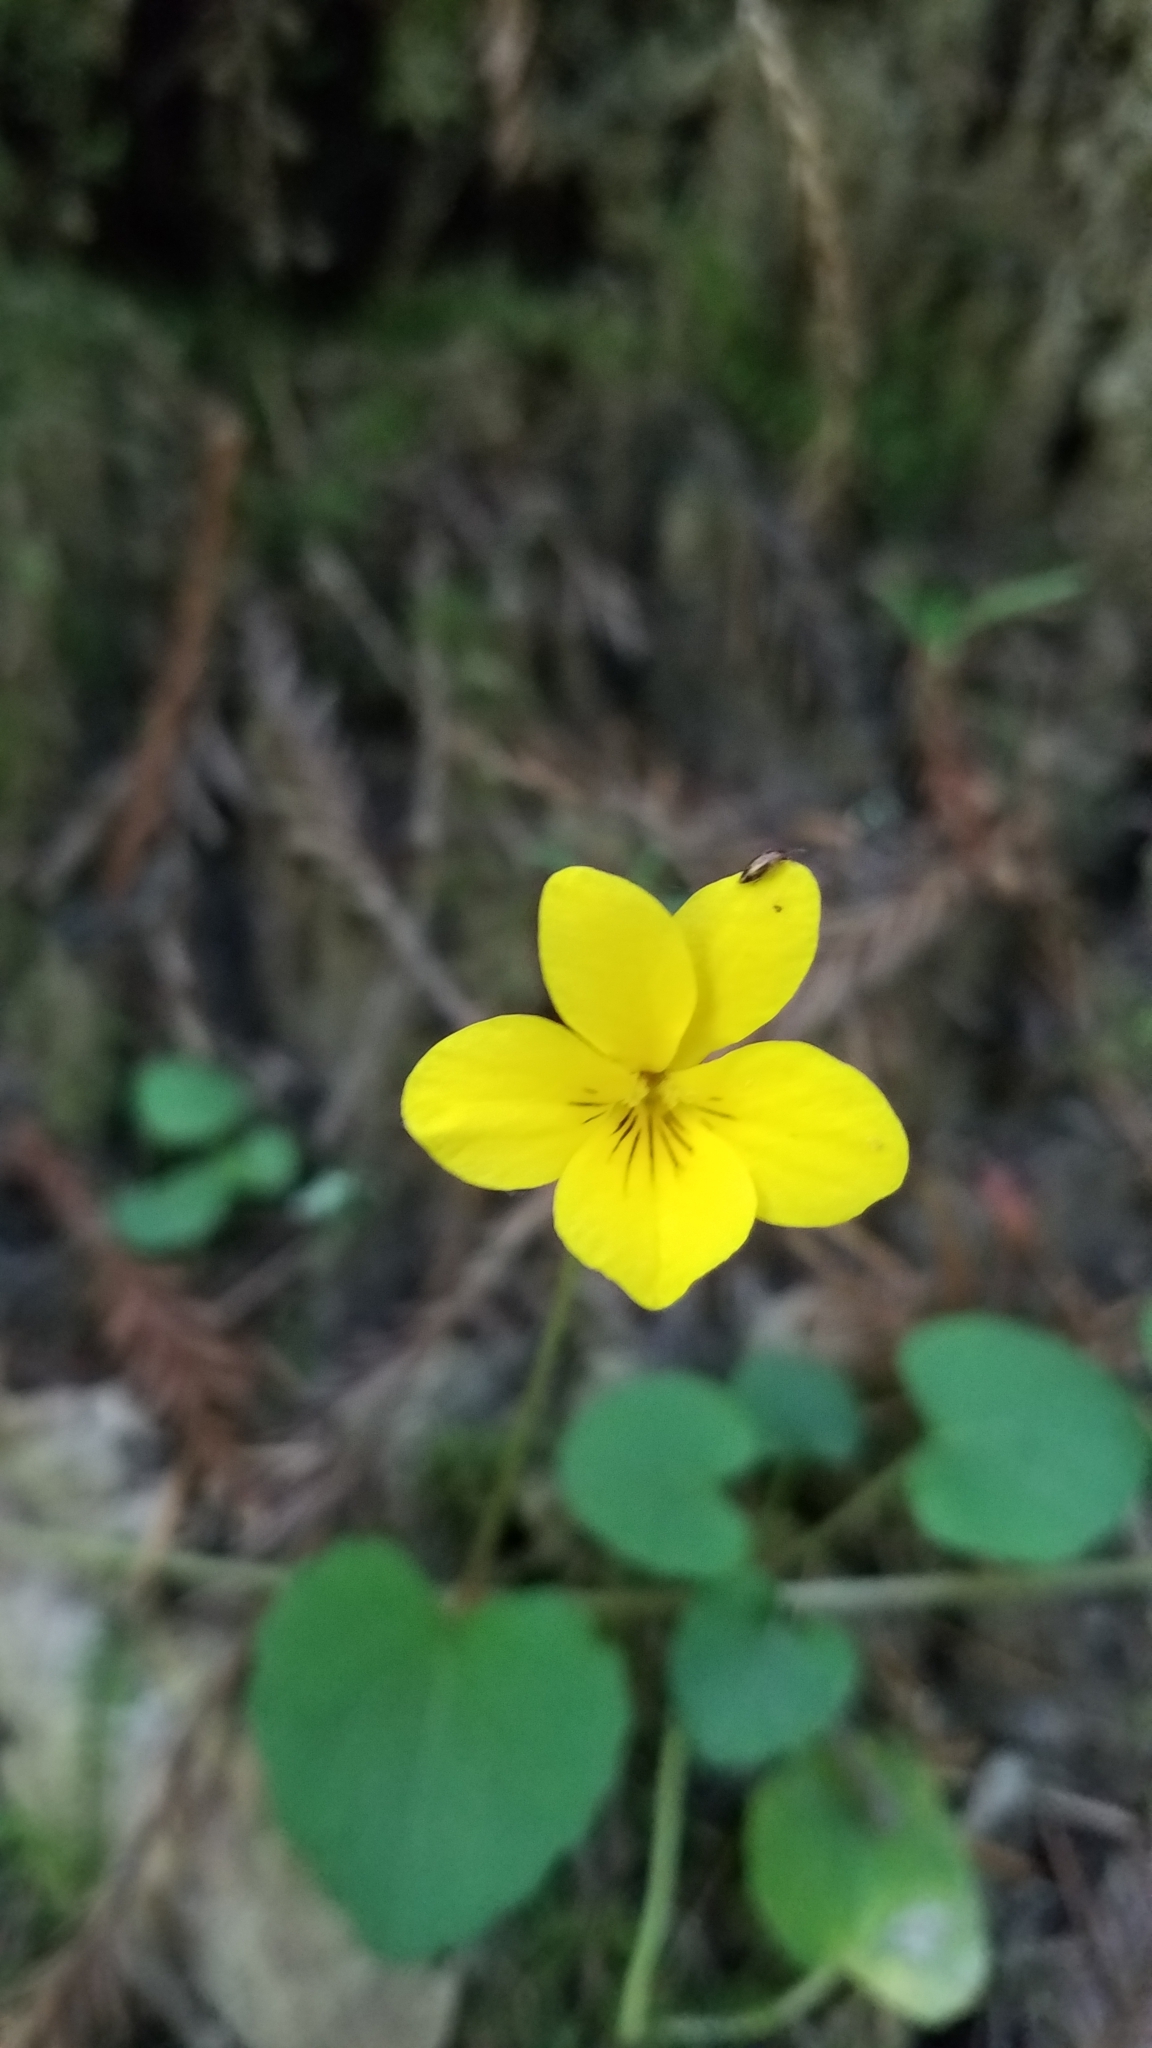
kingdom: Plantae
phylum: Tracheophyta
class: Magnoliopsida
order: Malpighiales
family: Violaceae
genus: Viola
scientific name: Viola sempervirens
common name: Evergreen violet
